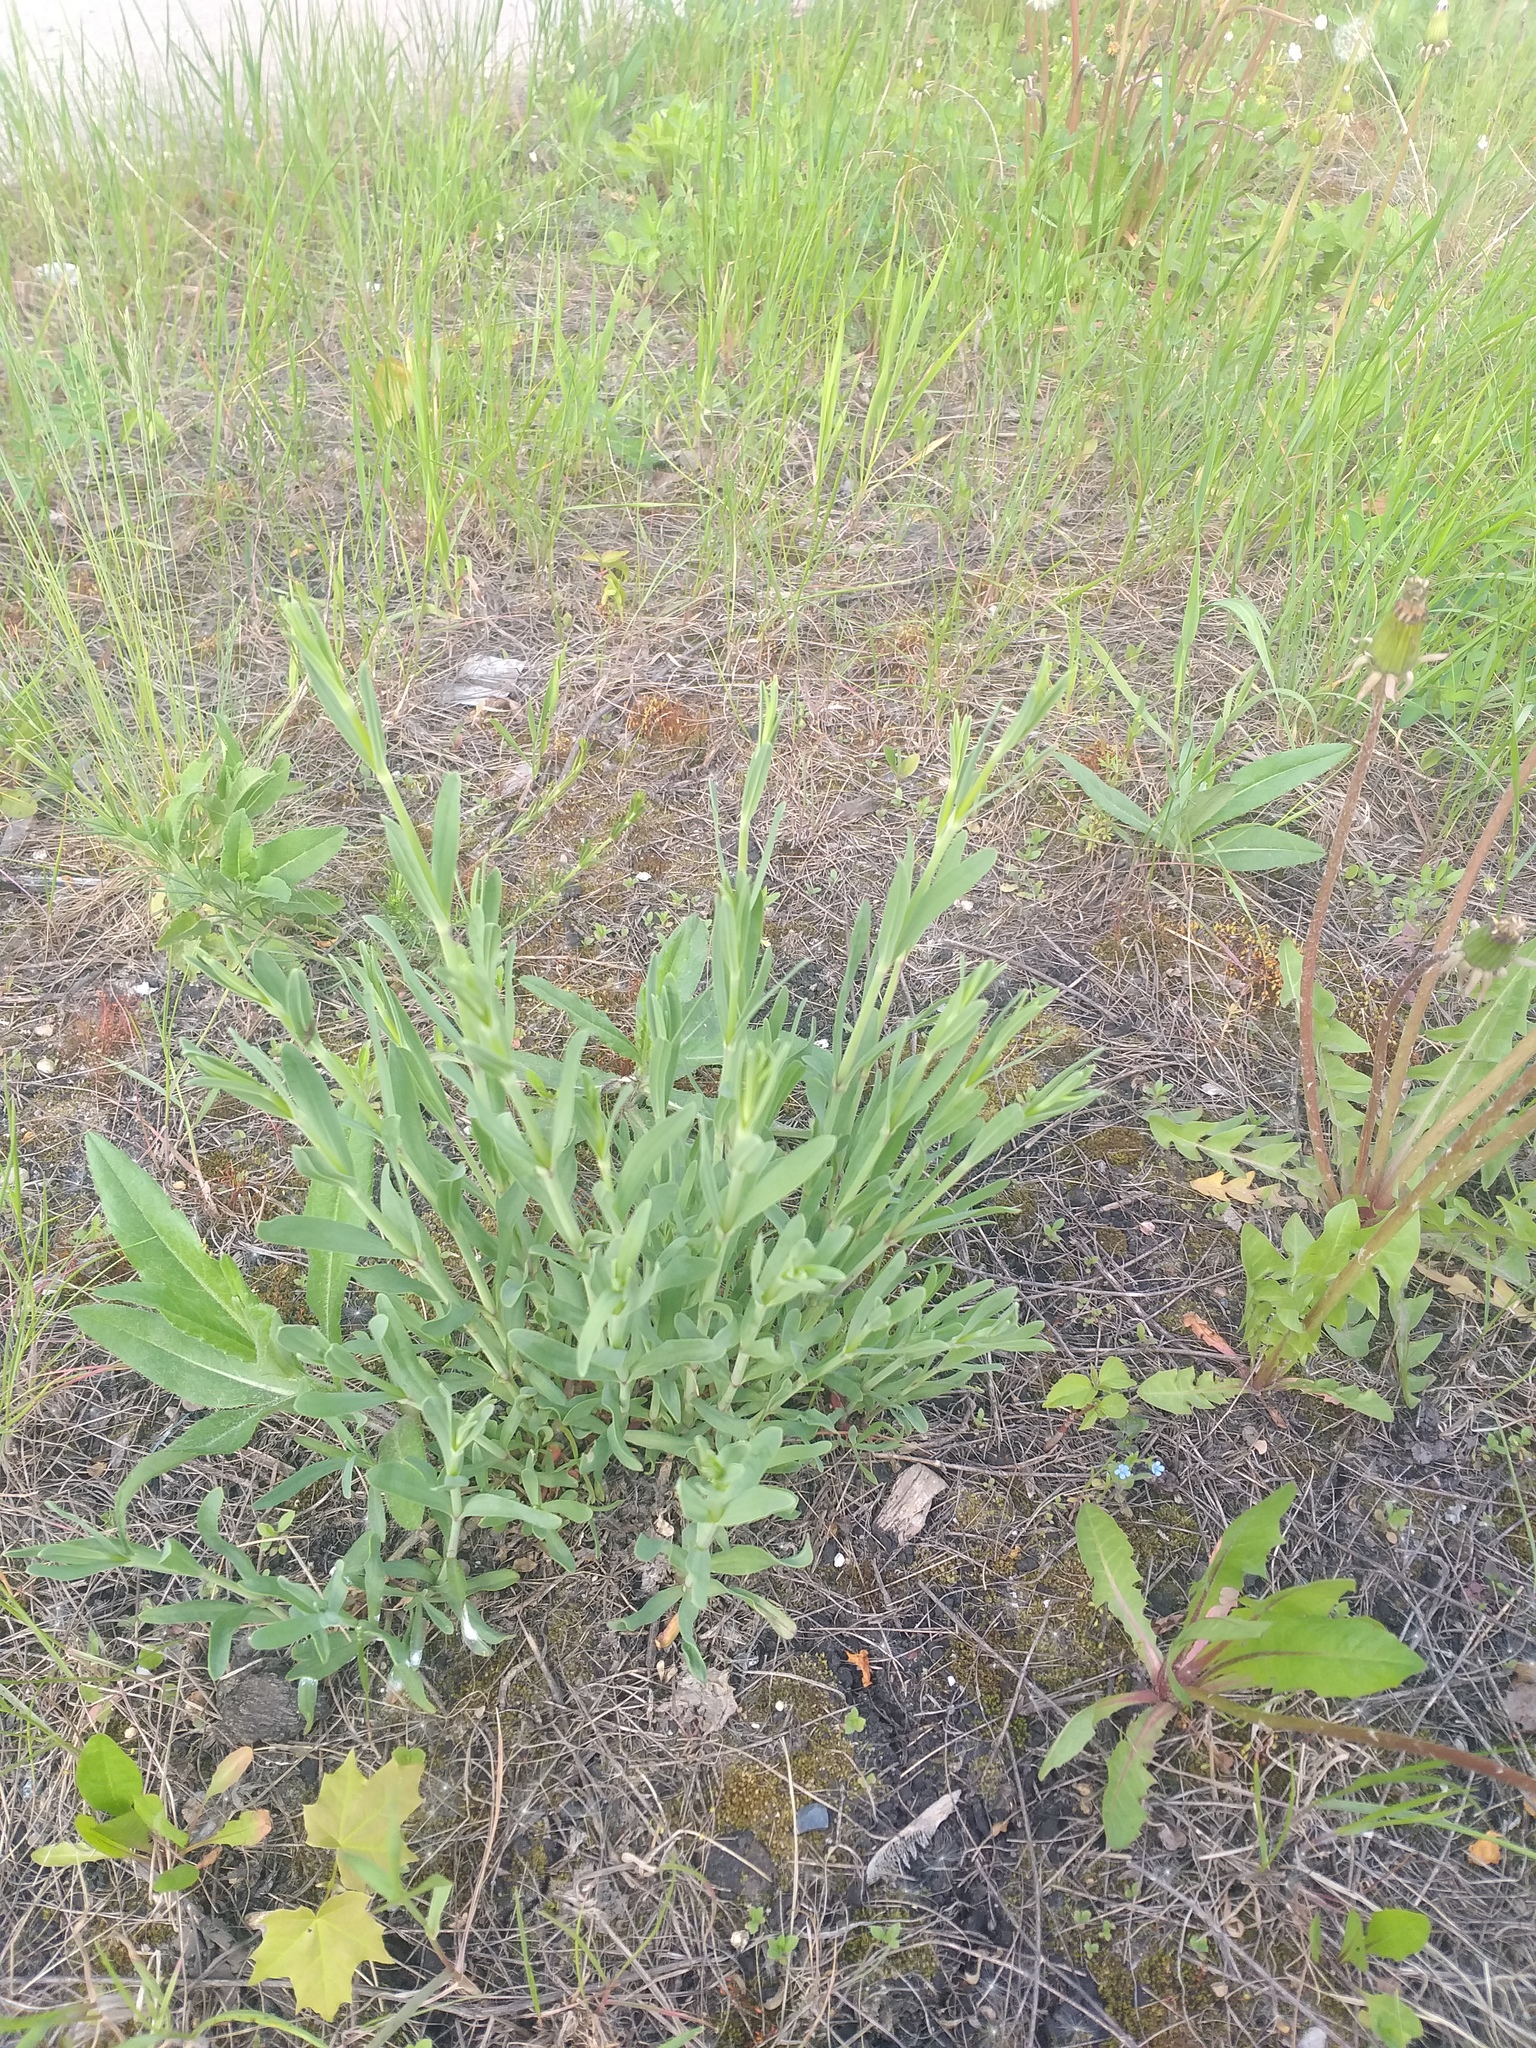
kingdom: Plantae
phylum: Tracheophyta
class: Magnoliopsida
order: Caryophyllales
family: Caryophyllaceae
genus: Gypsophila
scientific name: Gypsophila altissima
